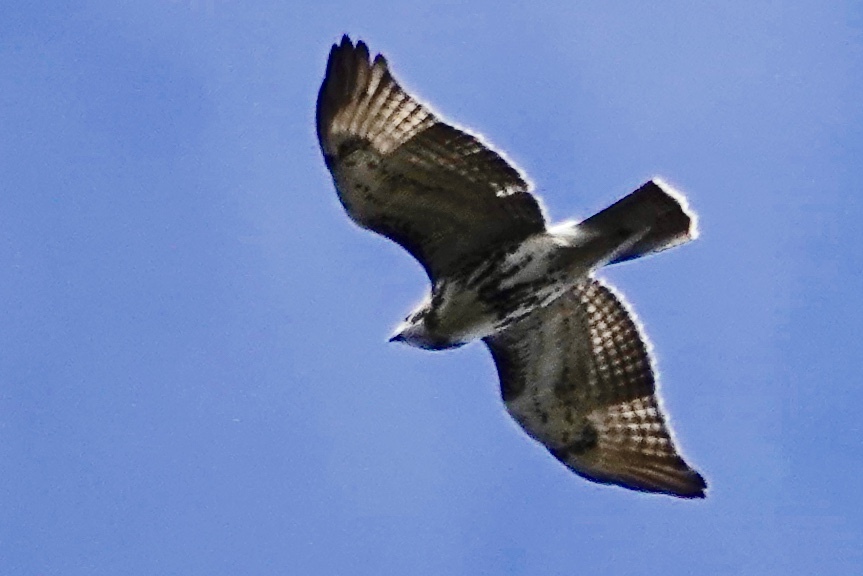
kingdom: Animalia
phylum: Chordata
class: Aves
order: Accipitriformes
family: Accipitridae
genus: Buteo
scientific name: Buteo jamaicensis
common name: Red-tailed hawk
